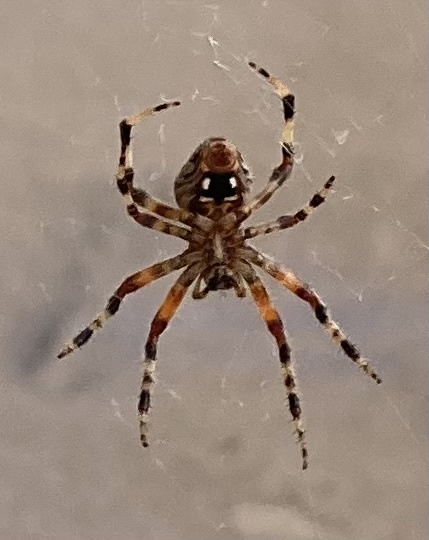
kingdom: Animalia
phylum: Arthropoda
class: Arachnida
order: Araneae
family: Araneidae
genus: Neoscona
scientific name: Neoscona oaxacensis
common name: Orb weavers
